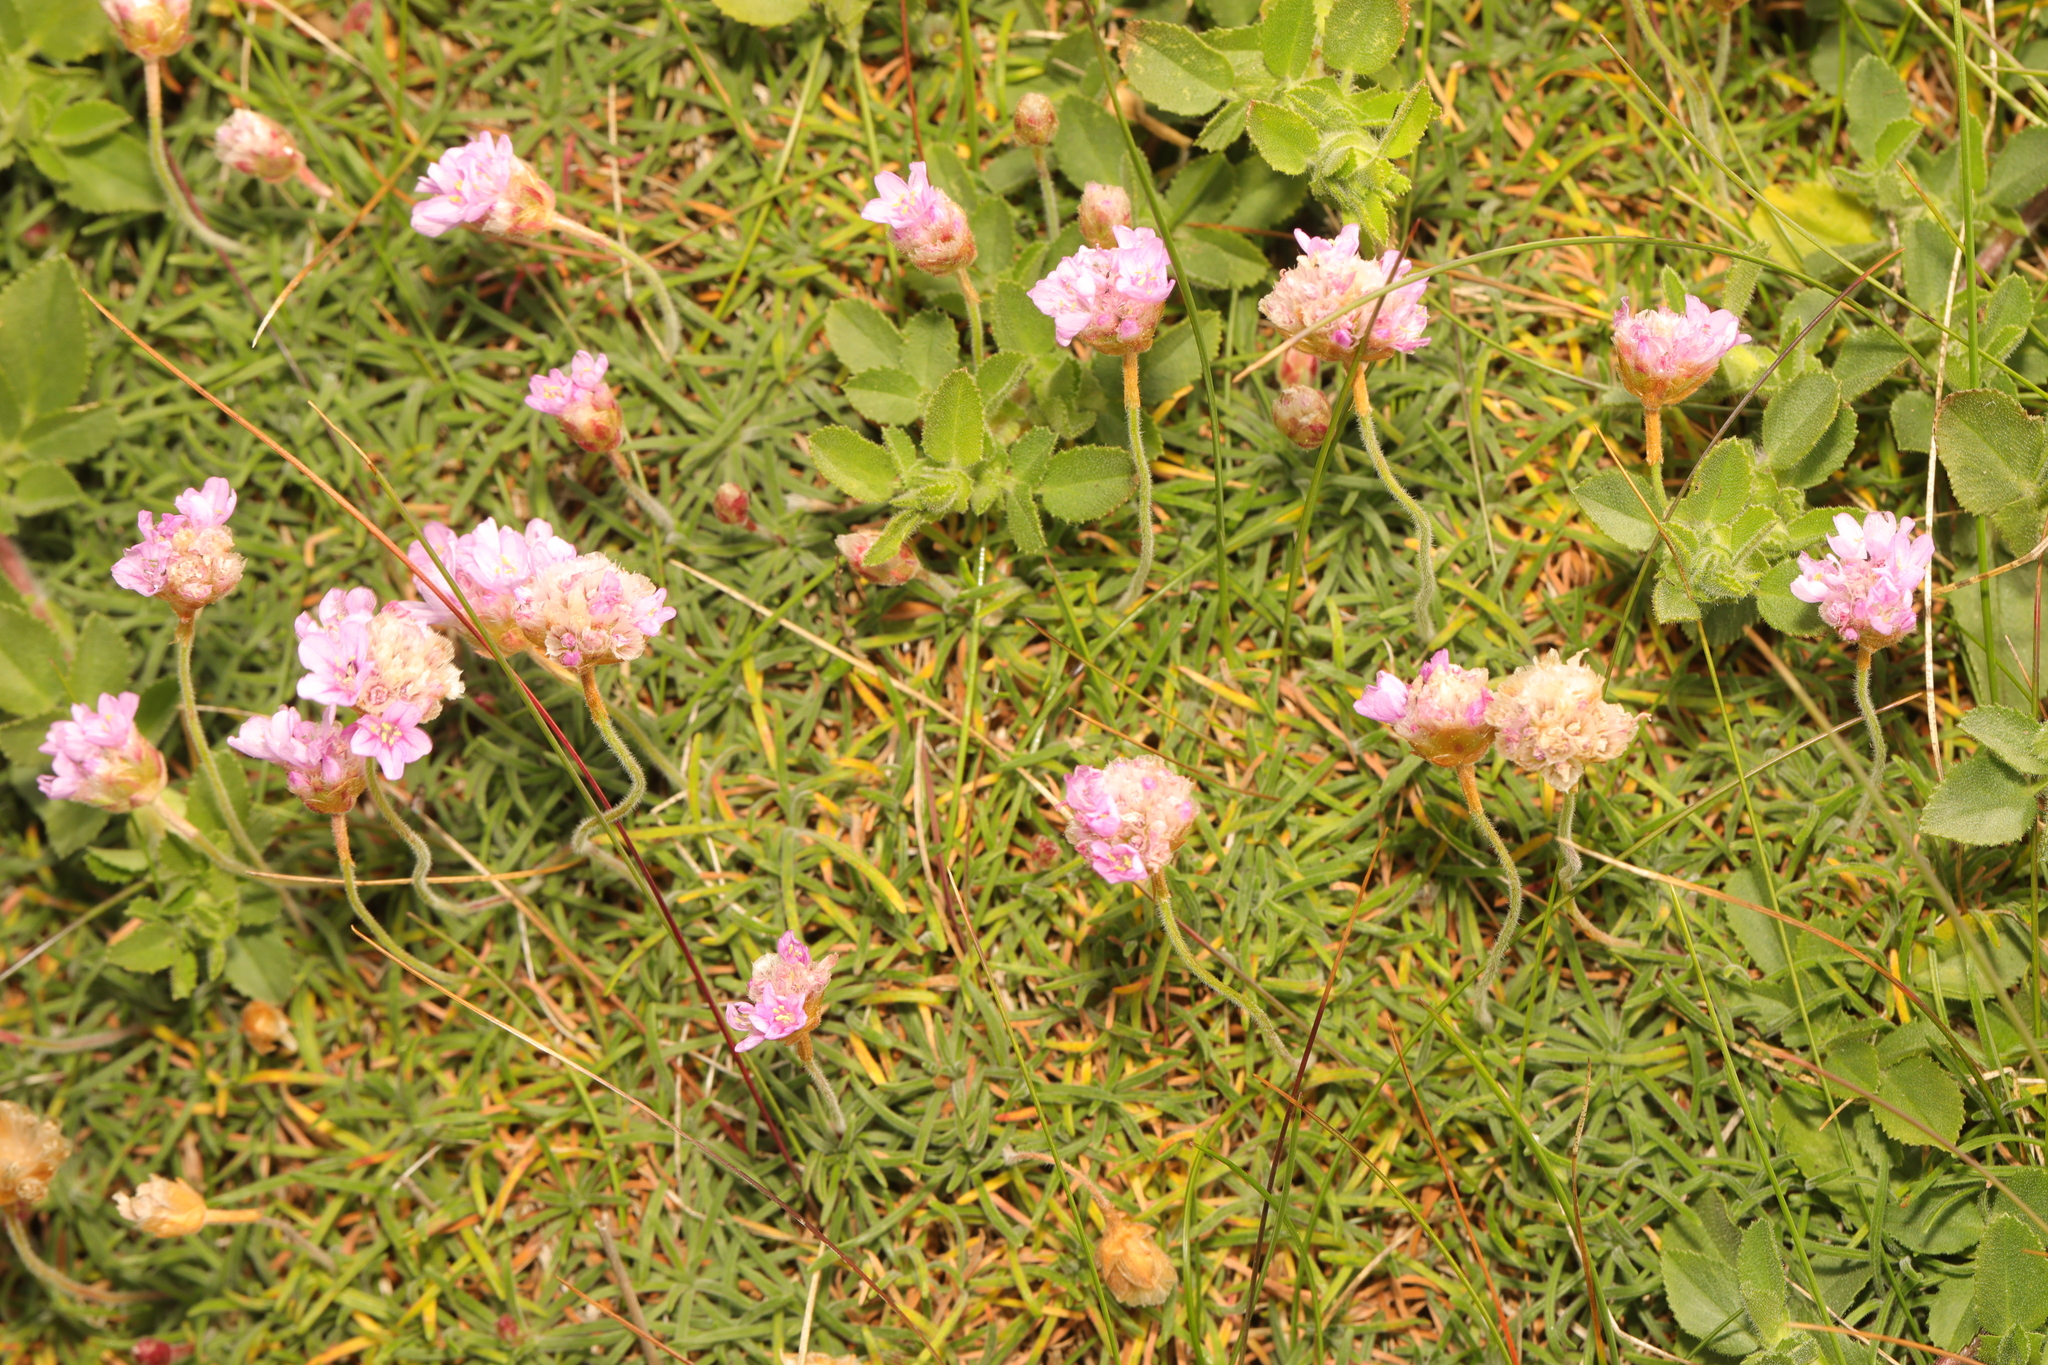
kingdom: Plantae
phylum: Tracheophyta
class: Magnoliopsida
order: Caryophyllales
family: Plumbaginaceae
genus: Armeria
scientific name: Armeria maritima
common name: Thrift
